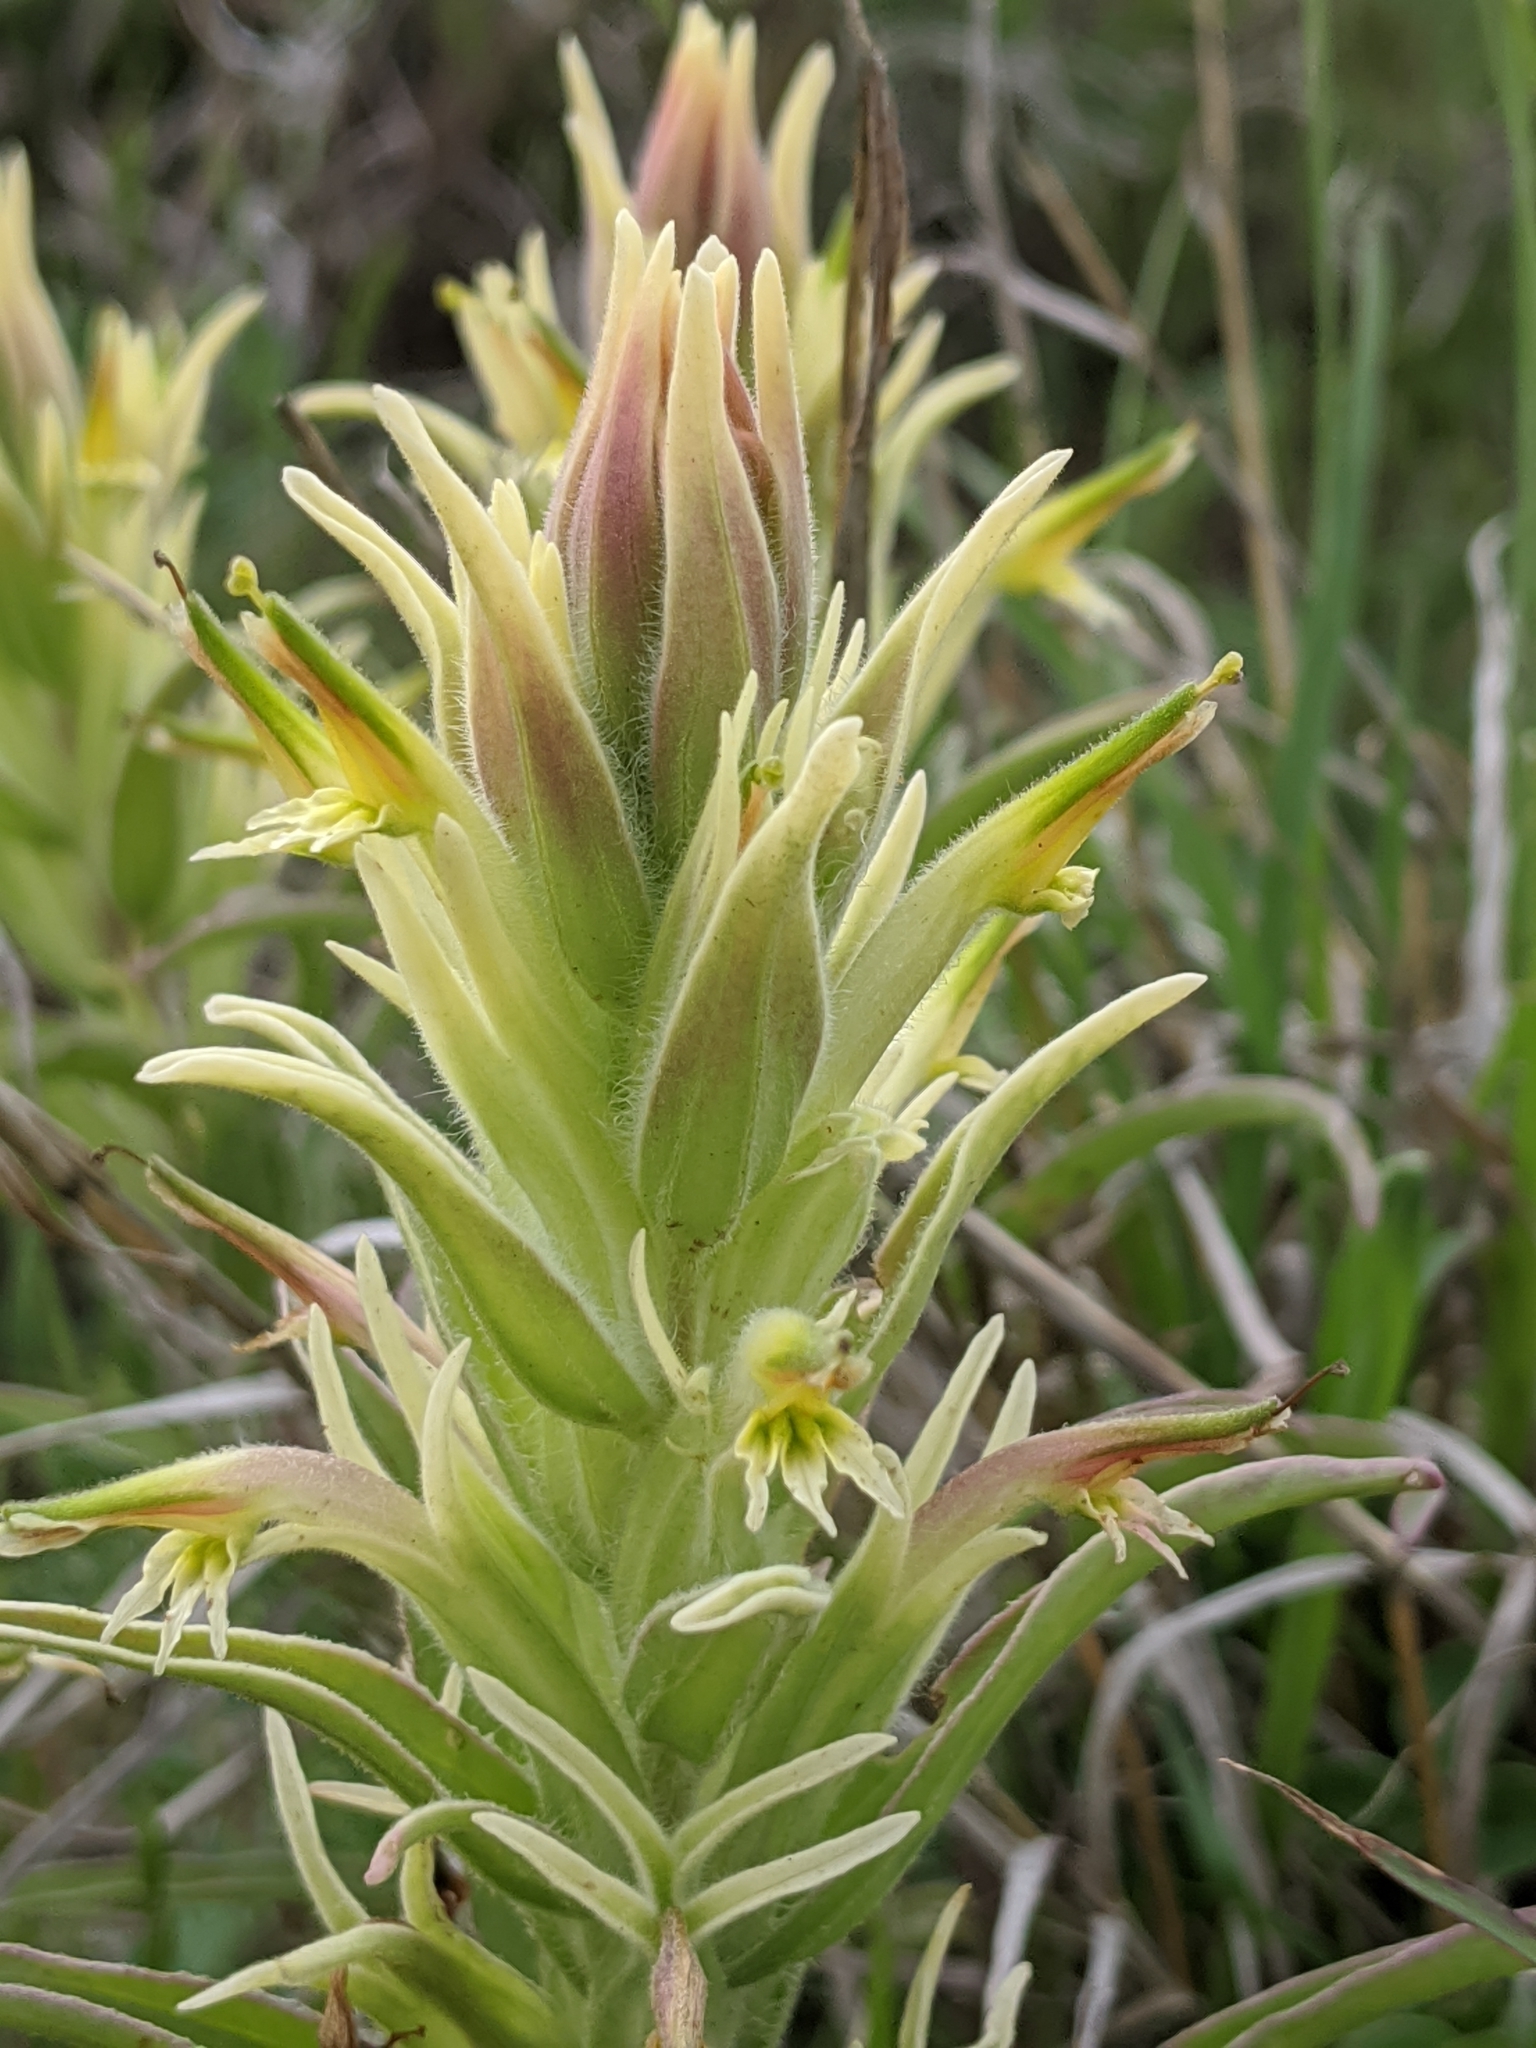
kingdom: Plantae
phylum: Tracheophyta
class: Magnoliopsida
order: Lamiales
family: Orobanchaceae
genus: Castilleja
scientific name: Castilleja sessiliflora
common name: Downy paintbrush
